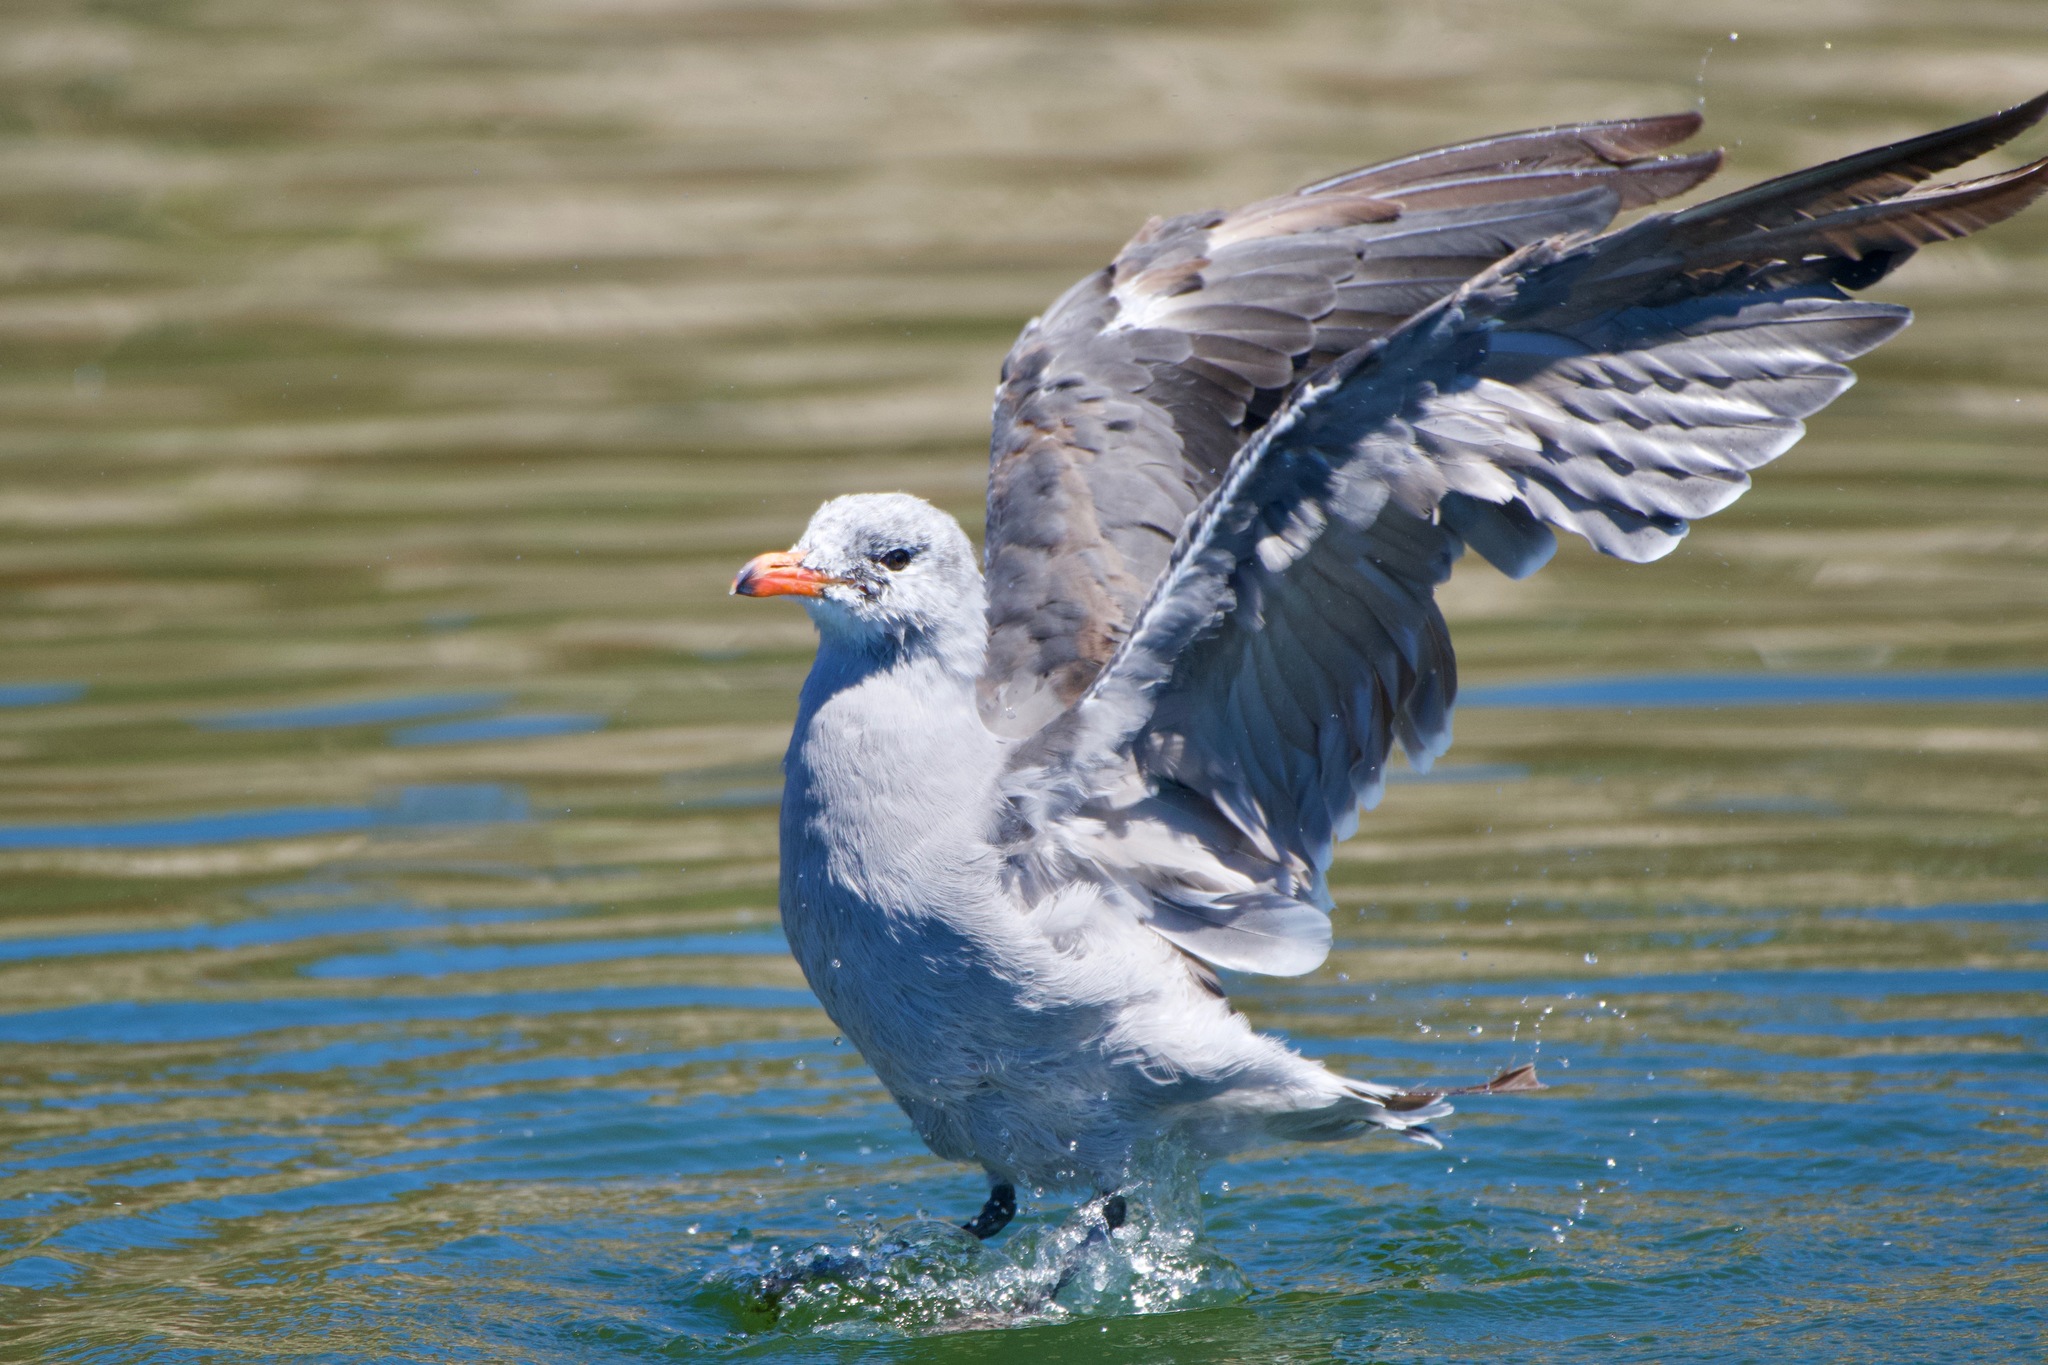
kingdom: Animalia
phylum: Chordata
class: Aves
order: Charadriiformes
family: Laridae
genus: Larus
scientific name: Larus heermanni
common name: Heermann's gull
